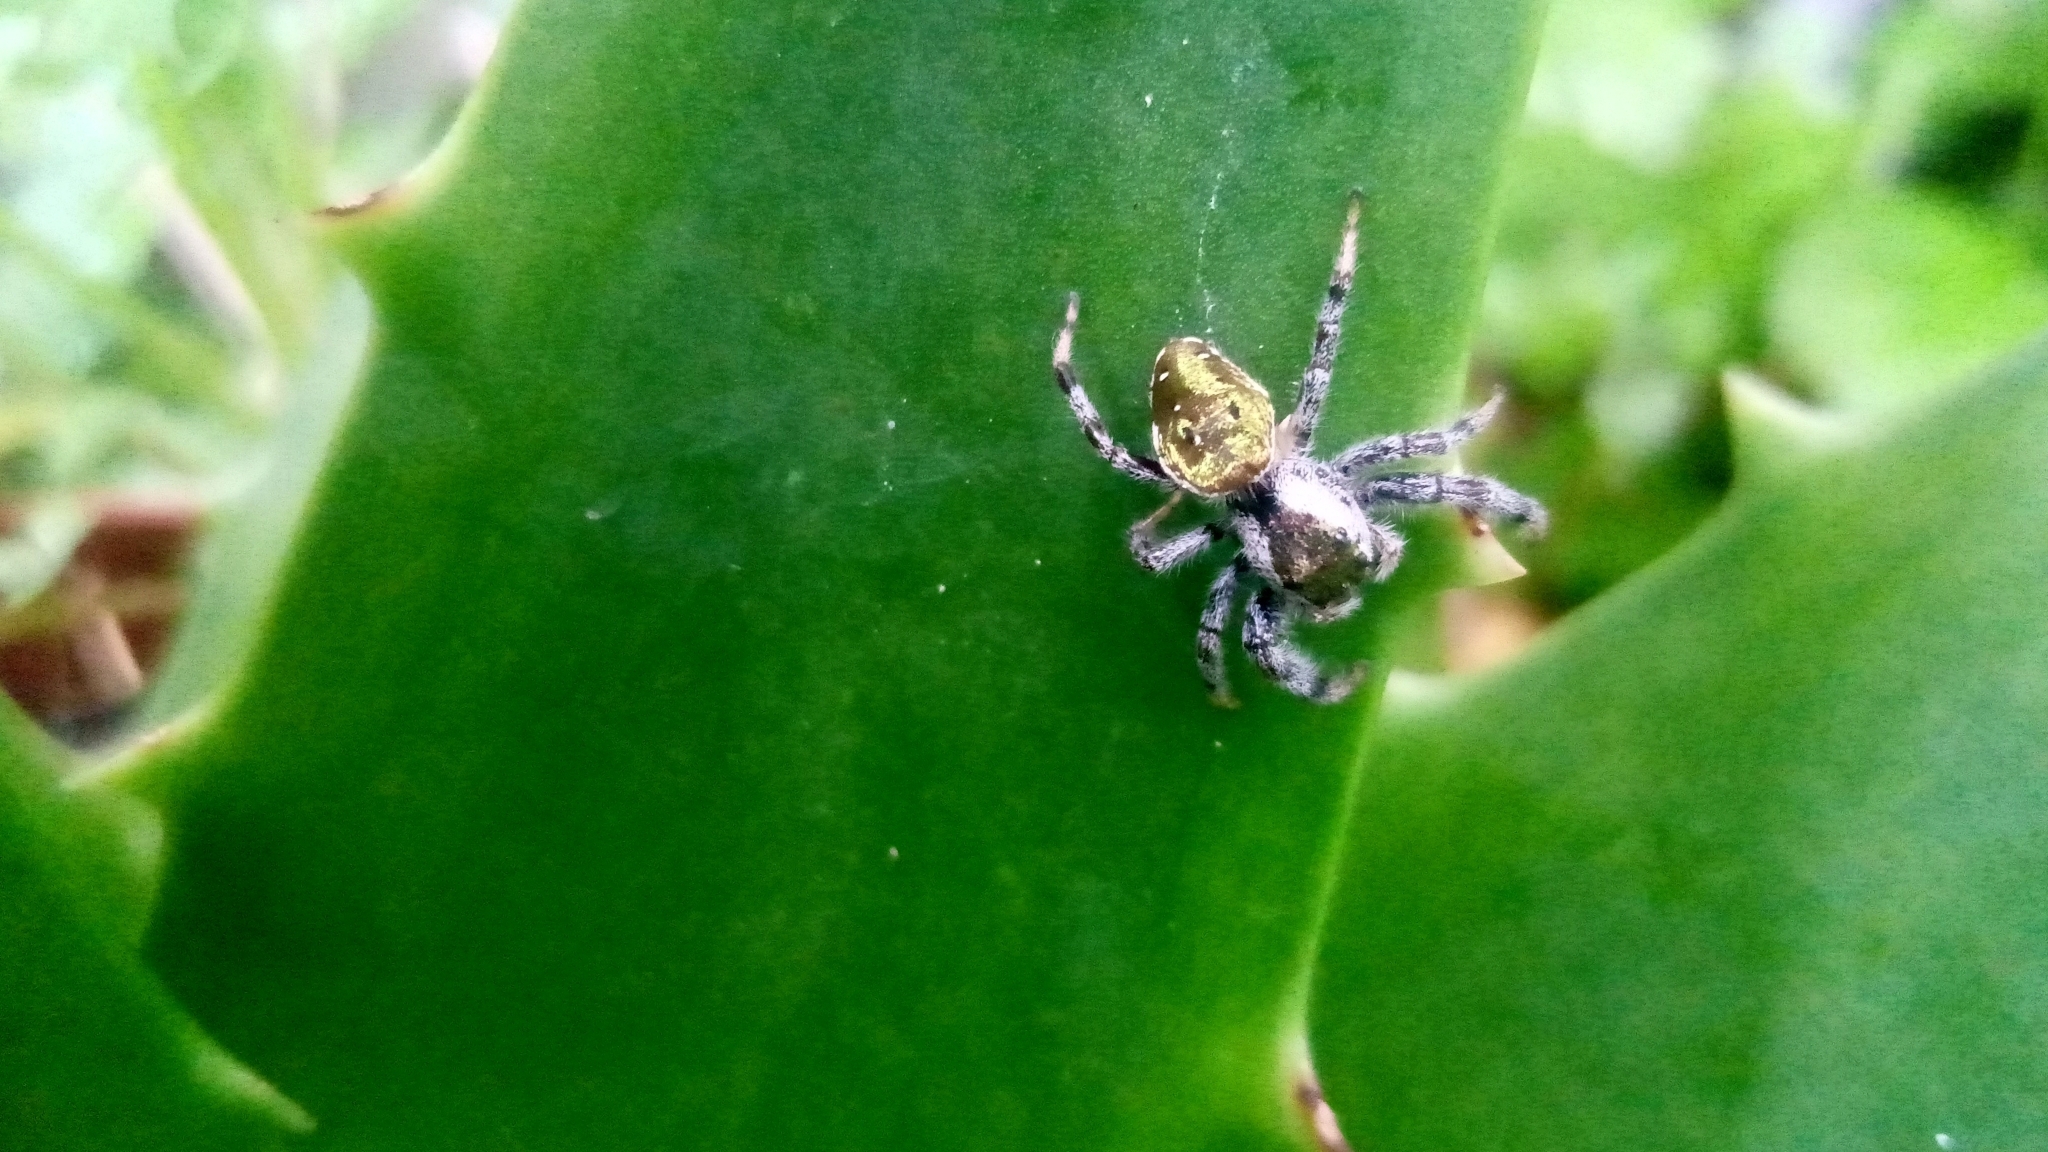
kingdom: Animalia
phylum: Arthropoda
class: Arachnida
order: Araneae
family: Salticidae
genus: Paraphidippus
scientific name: Paraphidippus aurantius
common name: Jumping spiders
